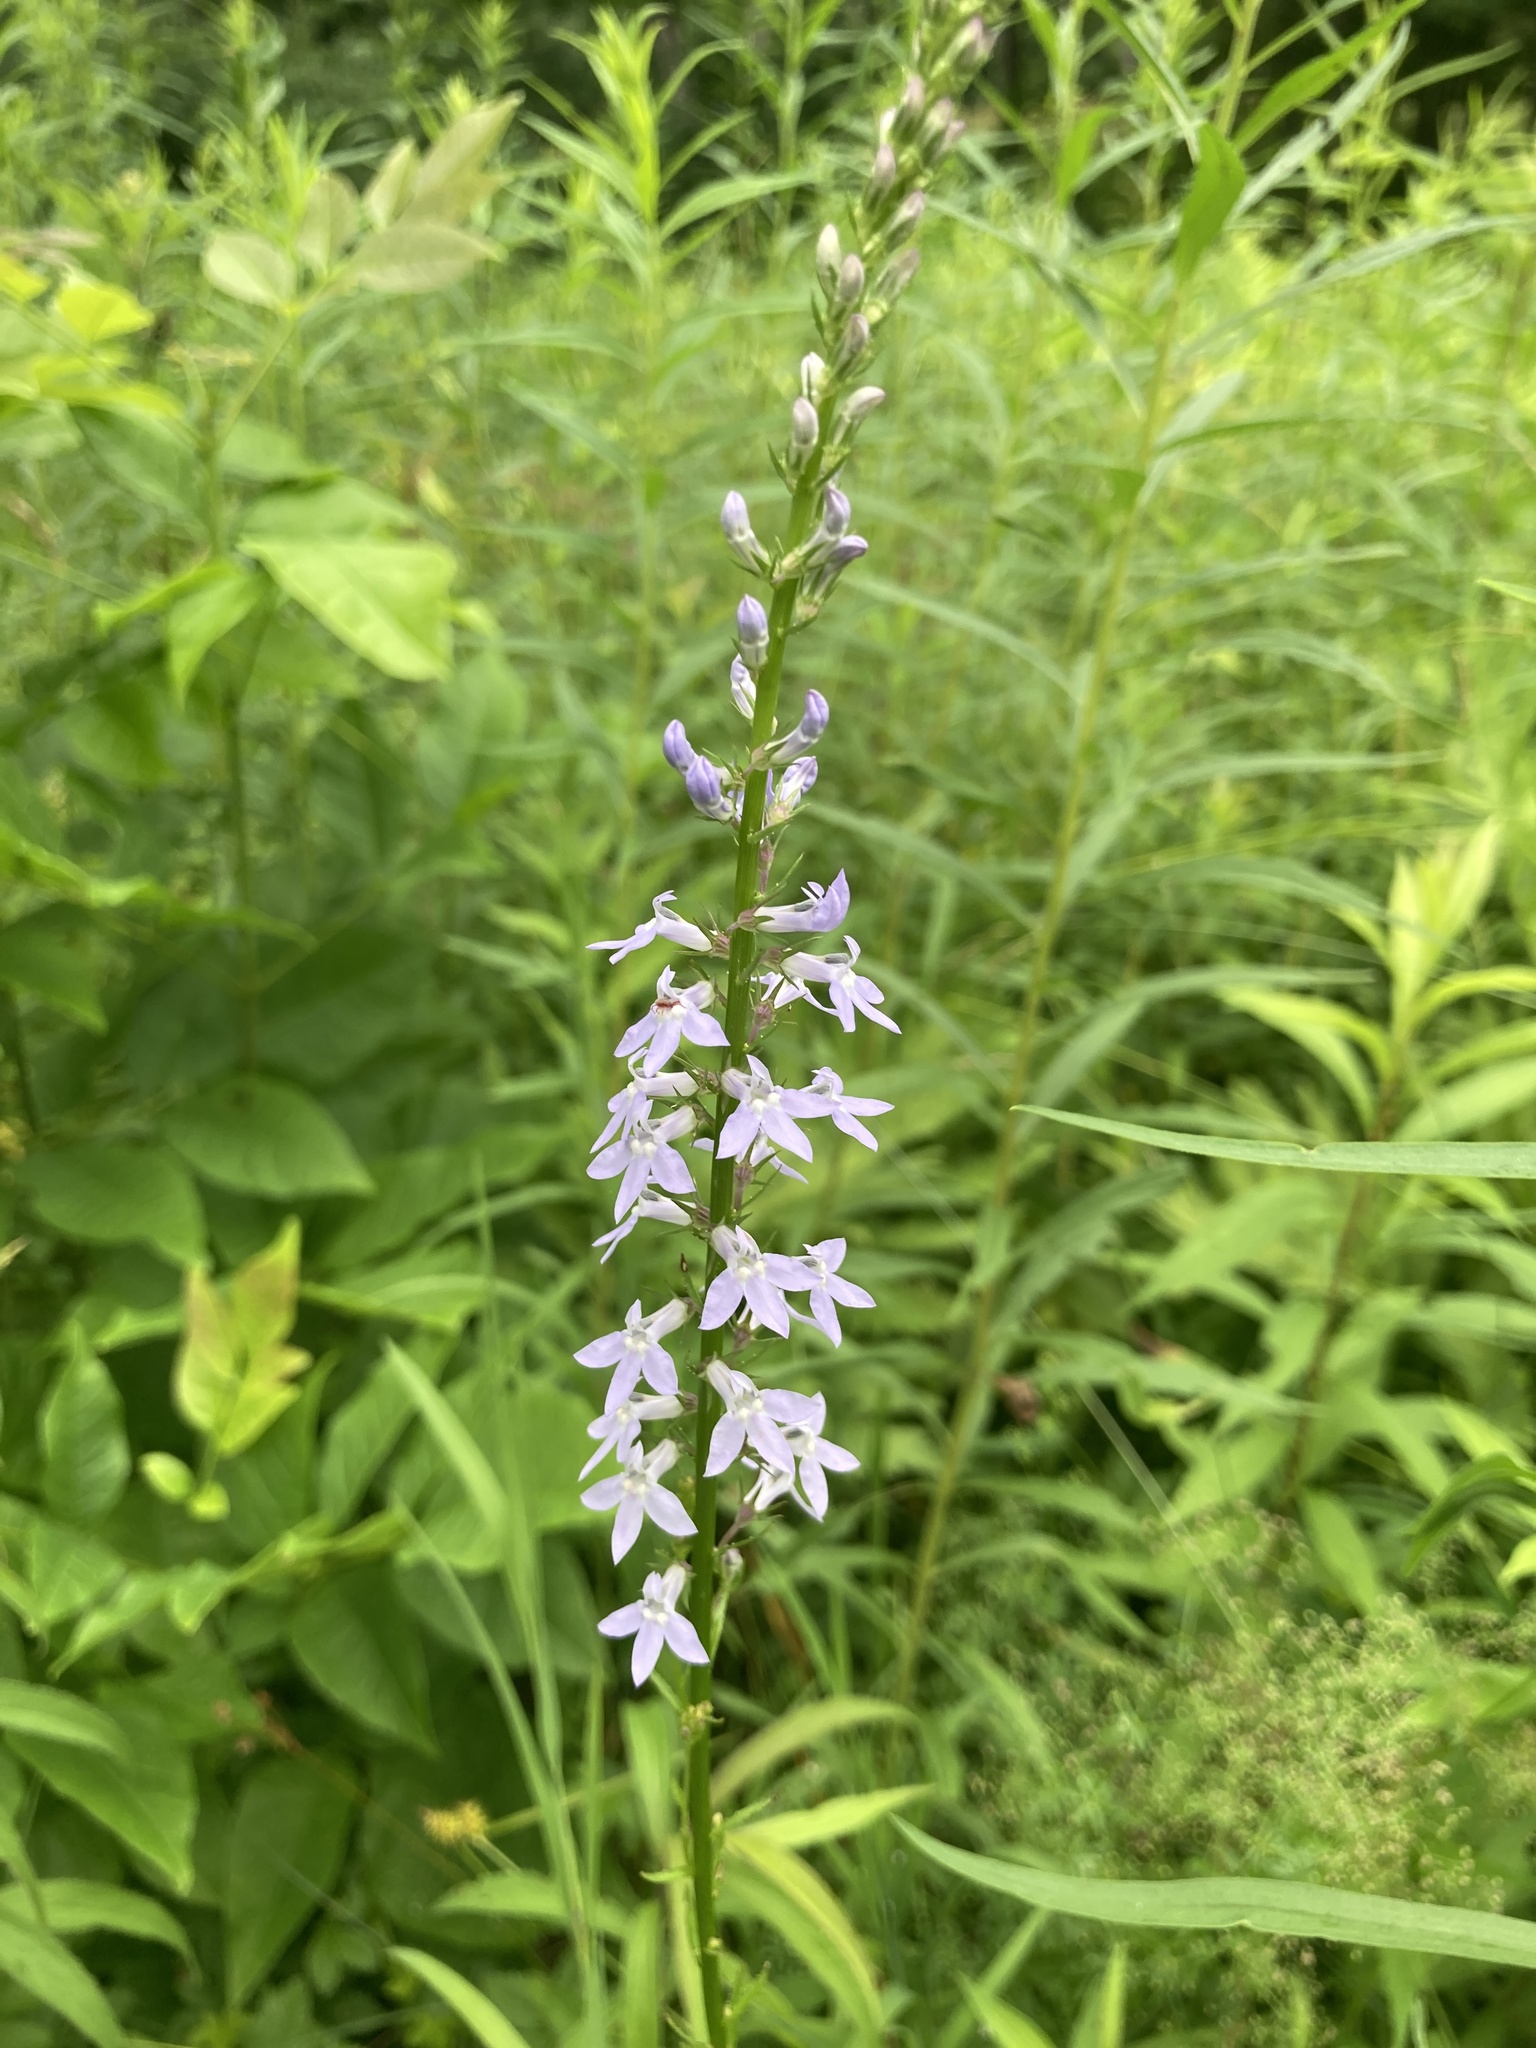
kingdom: Plantae
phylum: Tracheophyta
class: Magnoliopsida
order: Asterales
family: Campanulaceae
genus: Lobelia
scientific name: Lobelia spicata
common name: Pale-spike lobelia
